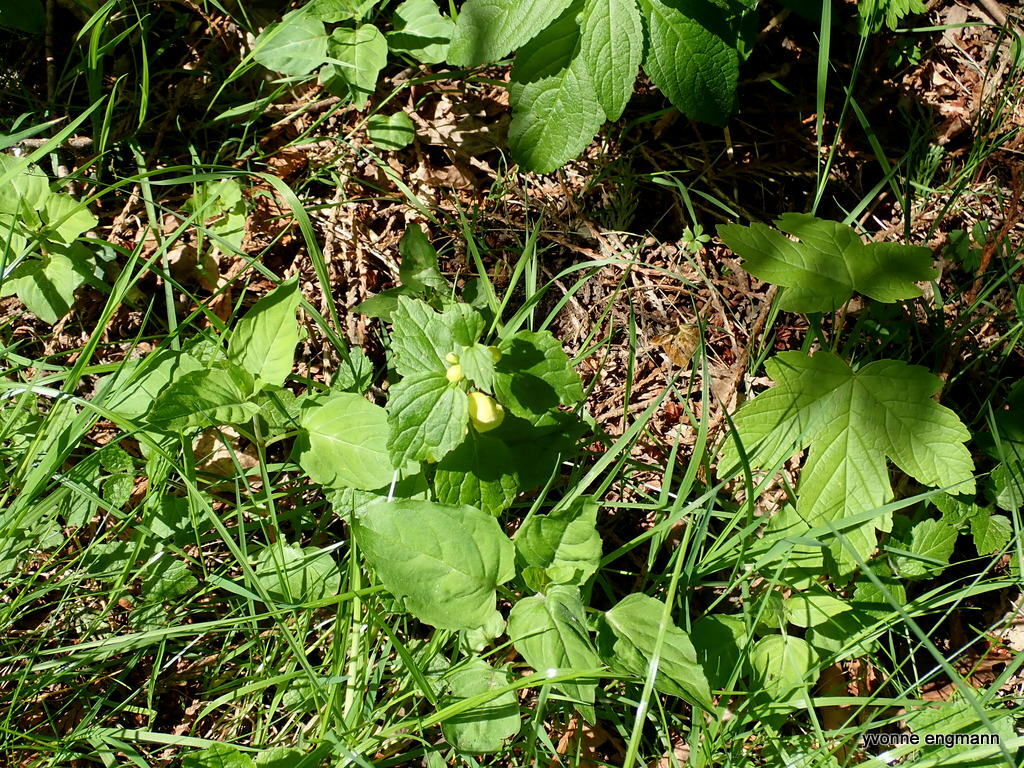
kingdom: Plantae
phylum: Tracheophyta
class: Magnoliopsida
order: Lamiales
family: Lamiaceae
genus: Lamium
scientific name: Lamium galeobdolon
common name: Yellow archangel
